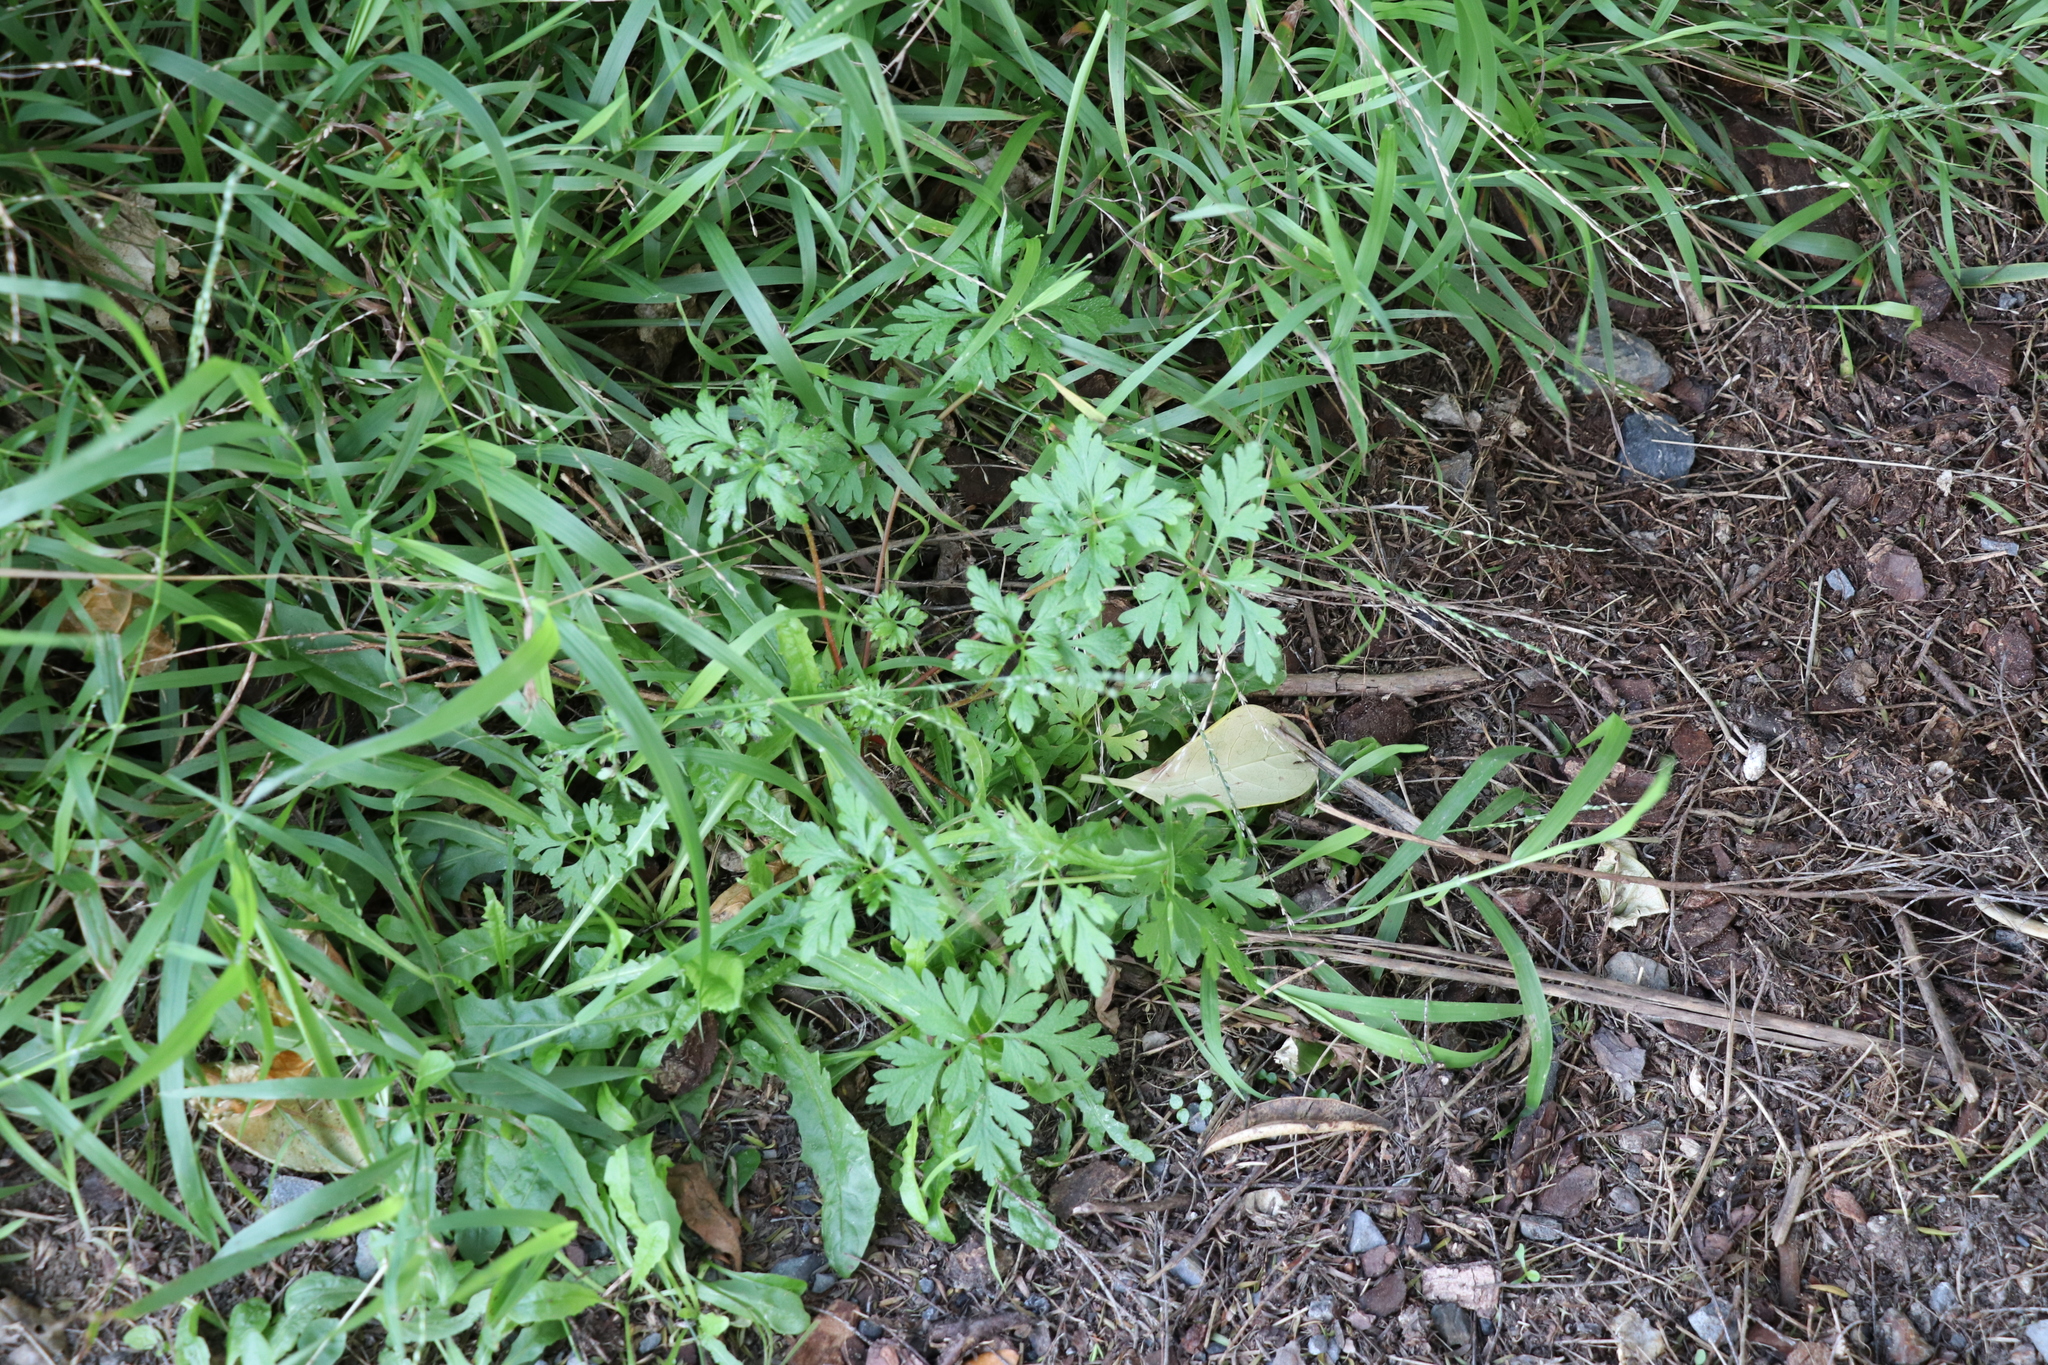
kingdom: Plantae
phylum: Tracheophyta
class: Magnoliopsida
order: Geraniales
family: Geraniaceae
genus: Geranium
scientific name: Geranium robertianum
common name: Herb-robert
